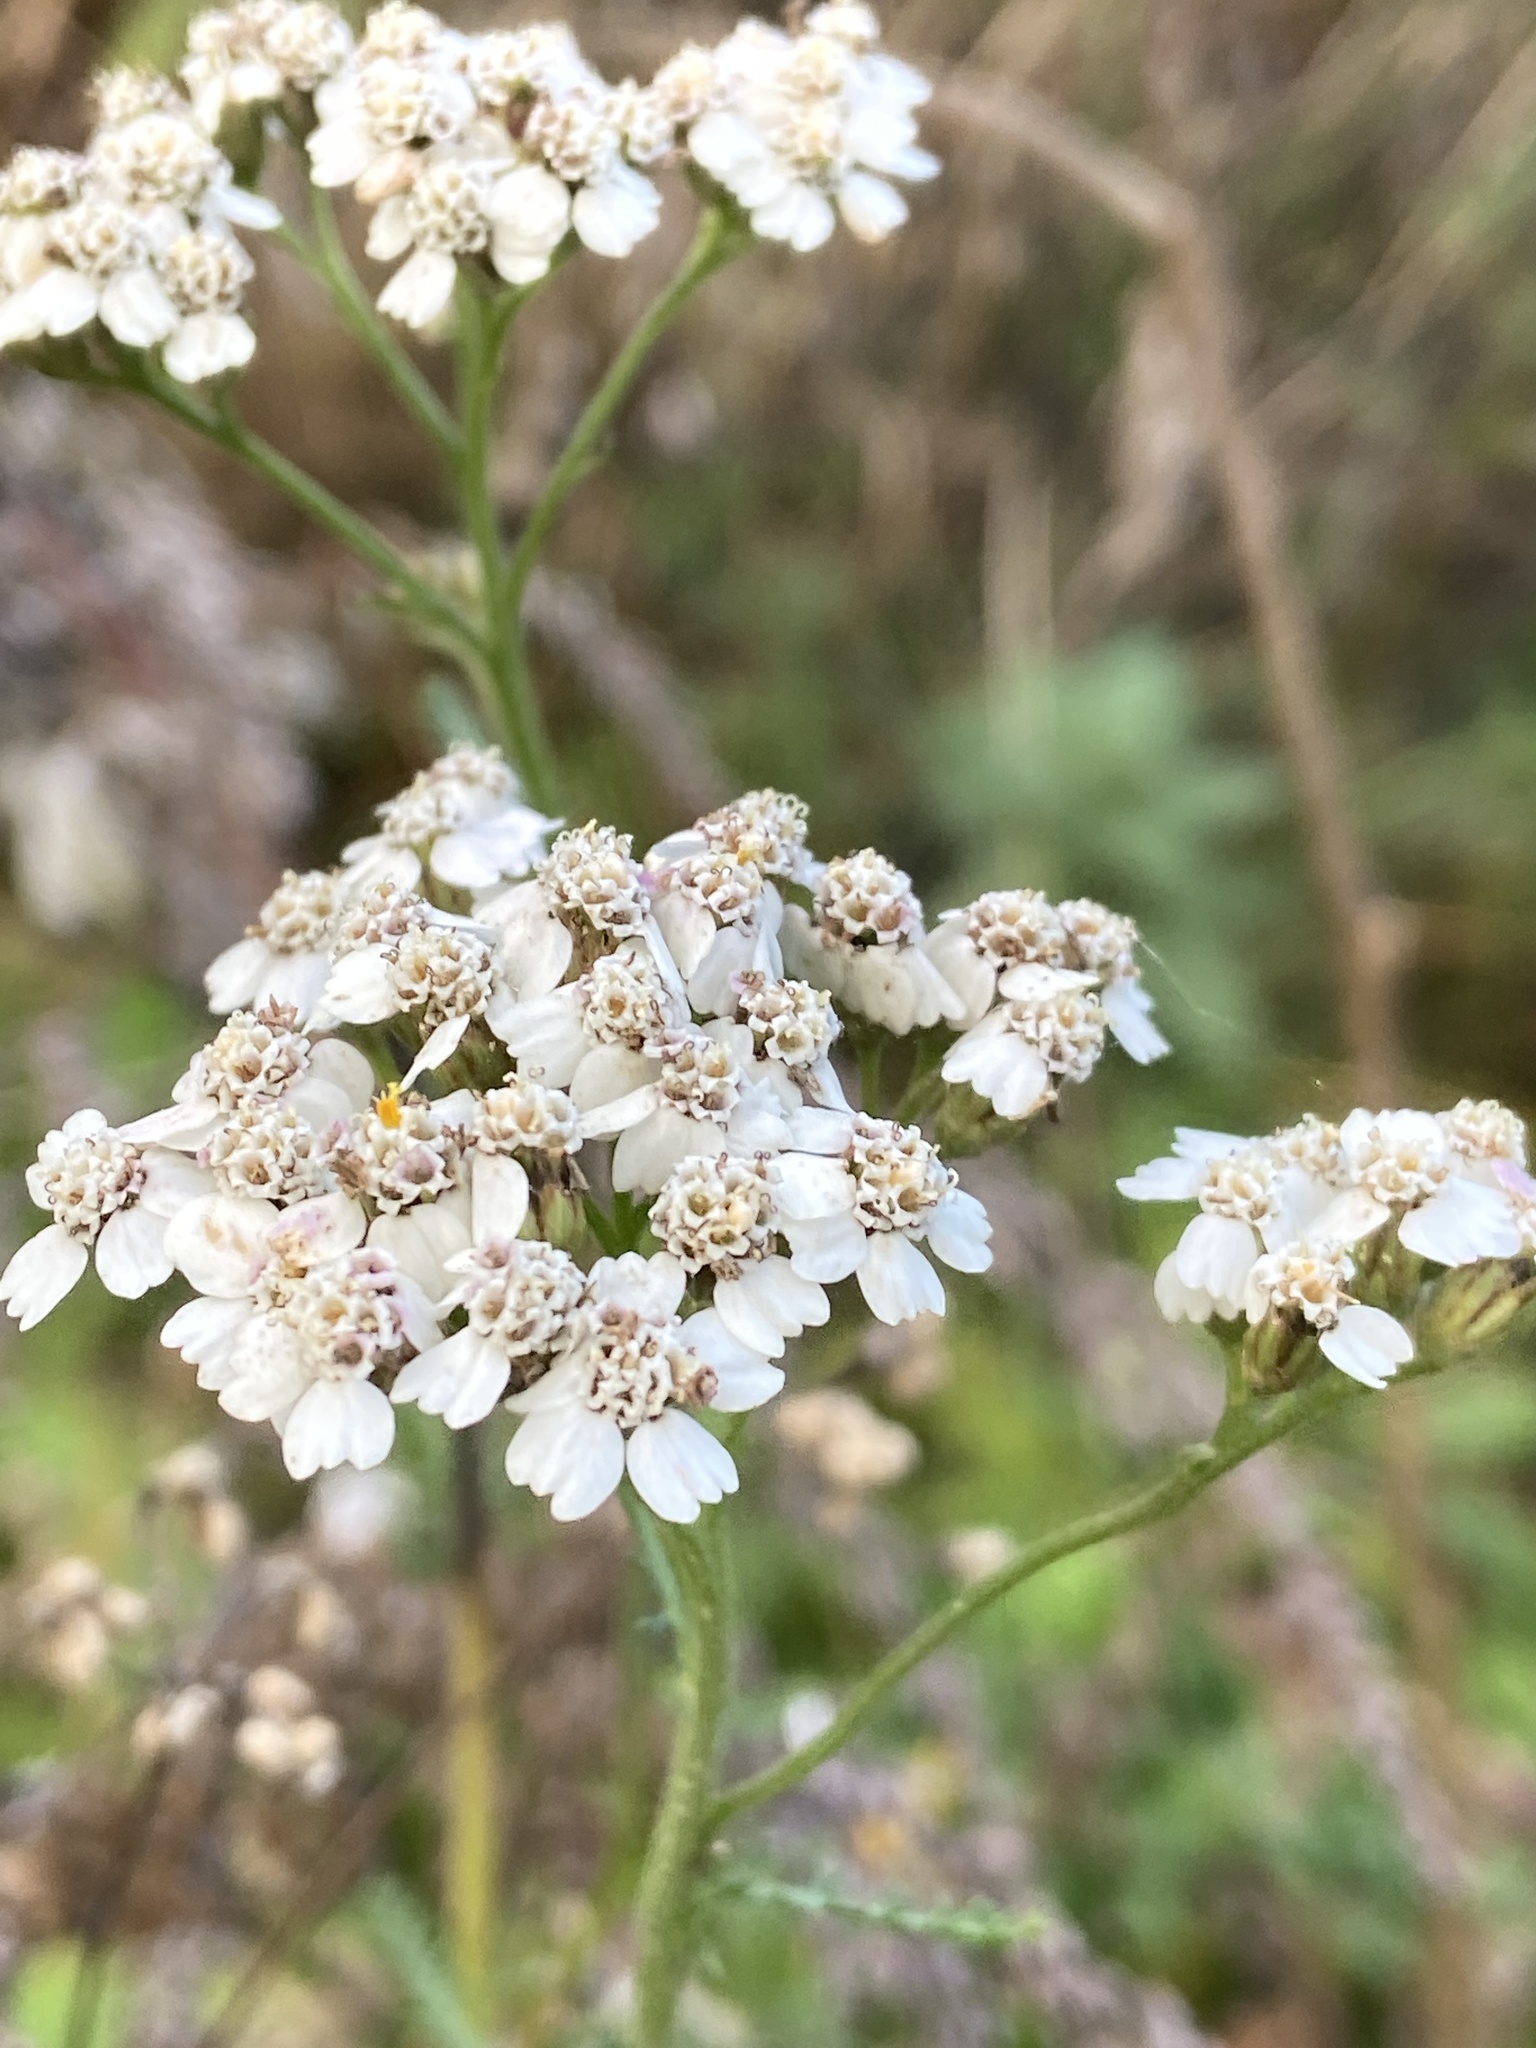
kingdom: Plantae
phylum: Tracheophyta
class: Magnoliopsida
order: Asterales
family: Asteraceae
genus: Achillea
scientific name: Achillea millefolium
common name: Yarrow
